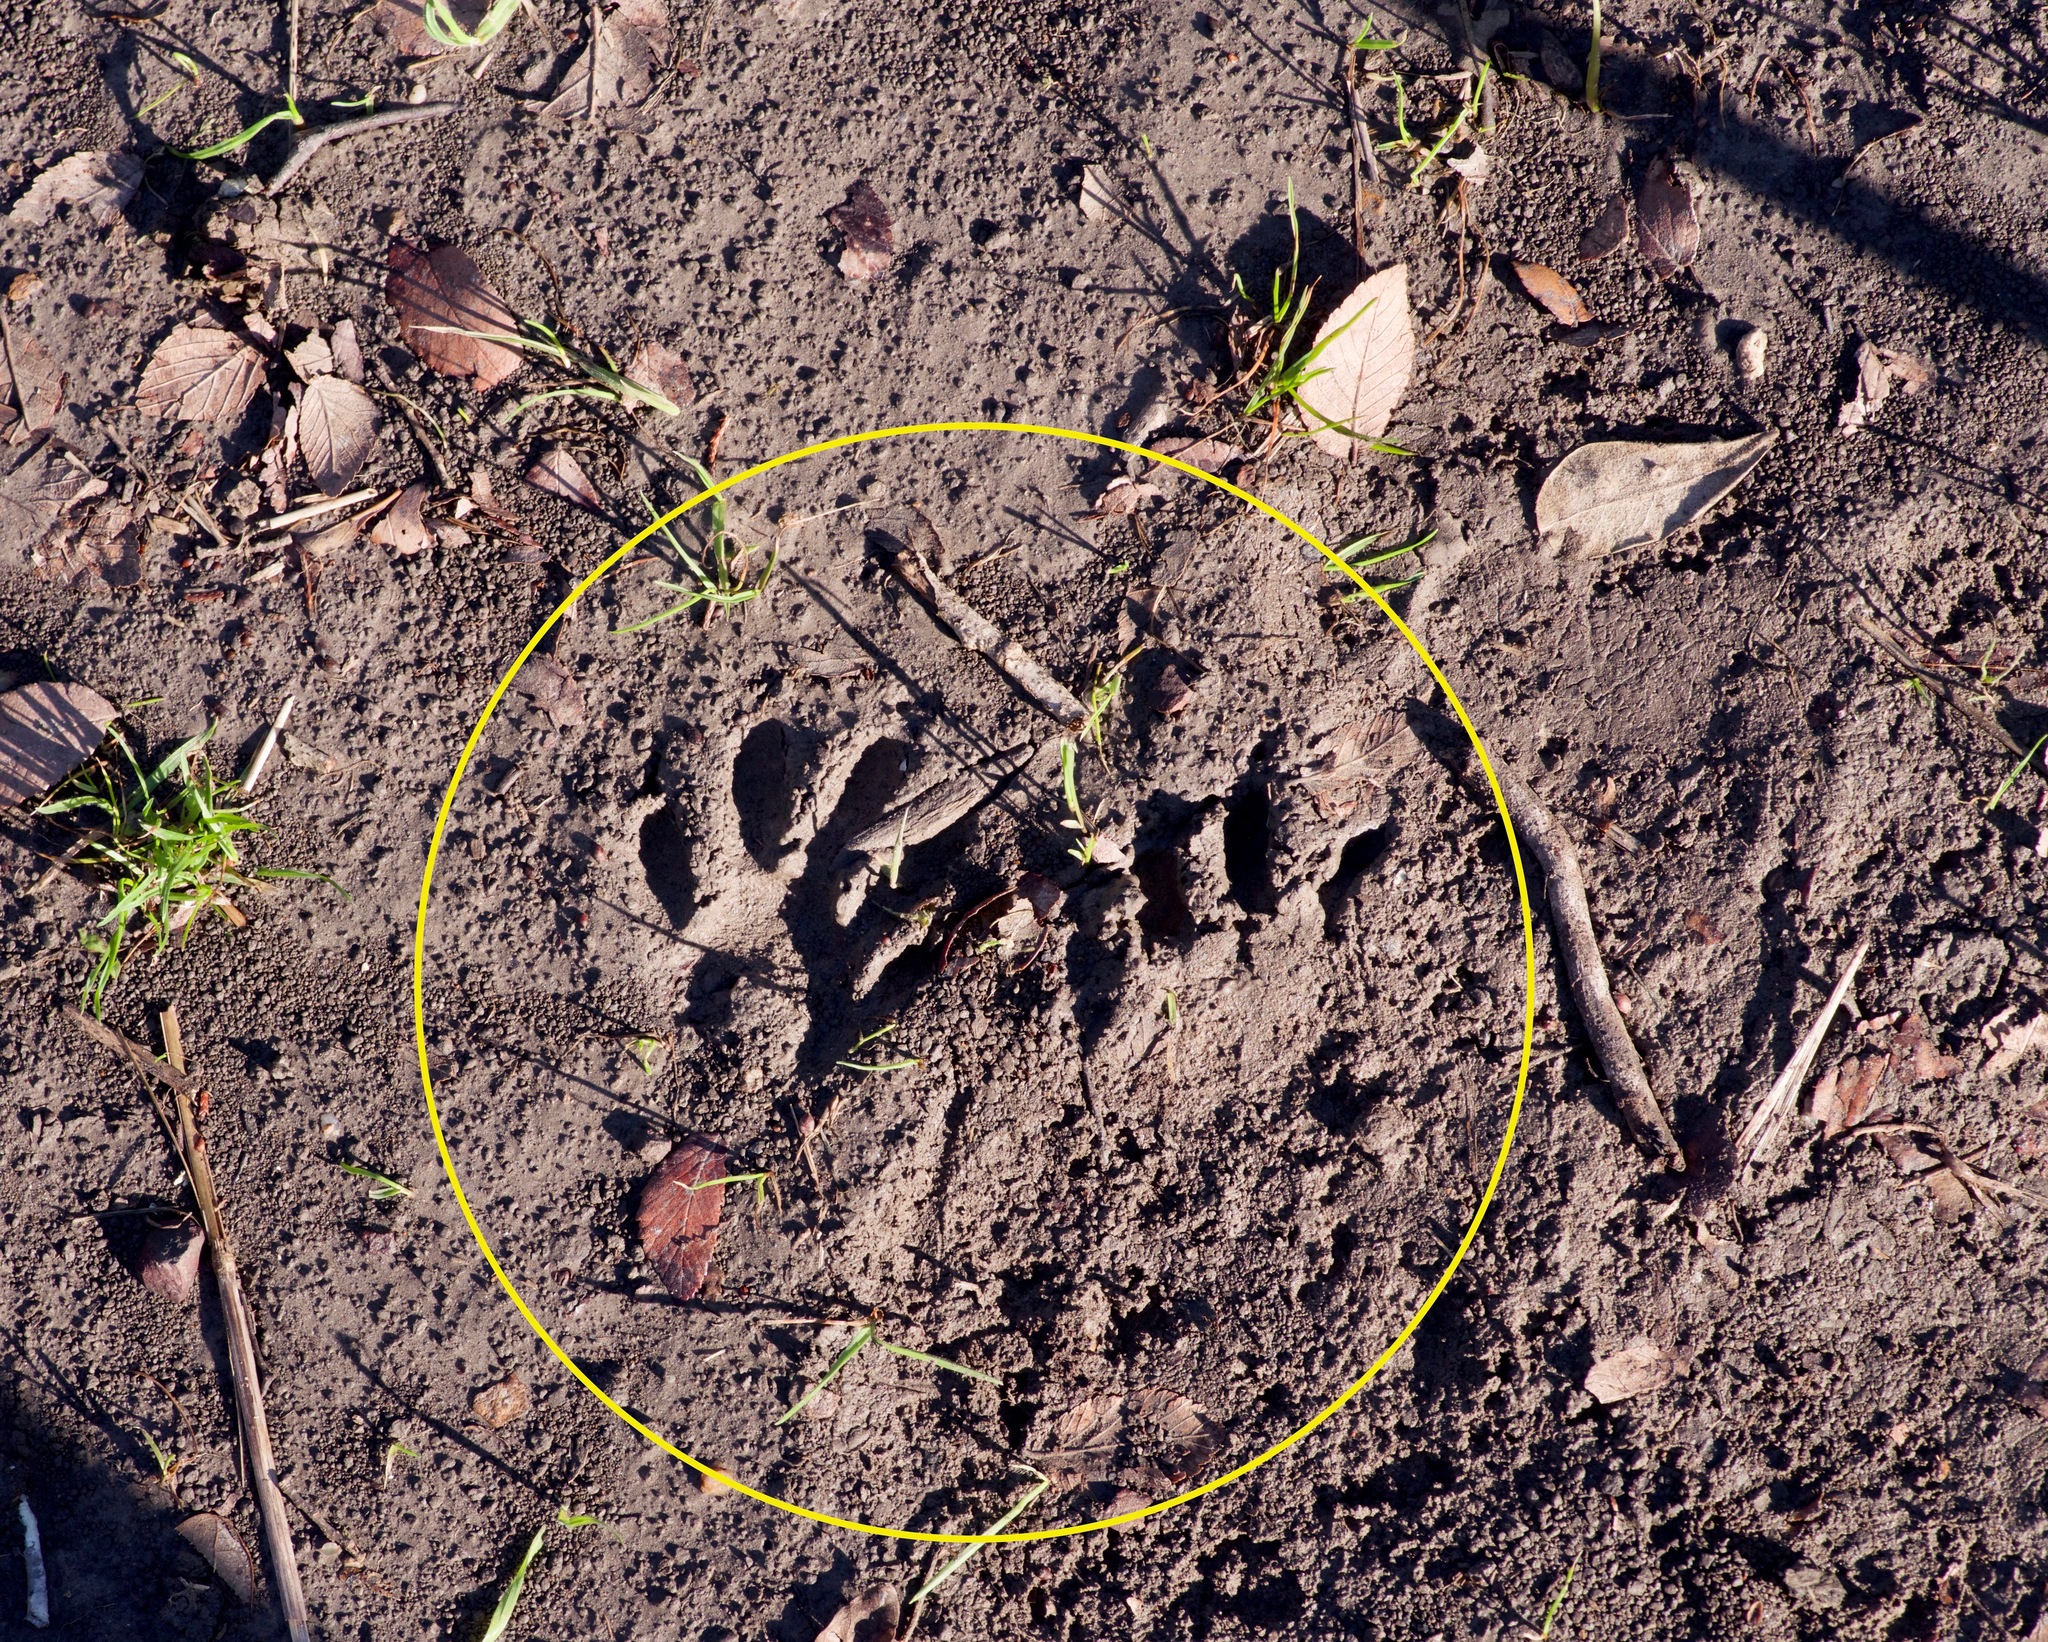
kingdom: Animalia
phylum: Chordata
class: Mammalia
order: Carnivora
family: Procyonidae
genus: Procyon
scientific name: Procyon lotor
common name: Raccoon
